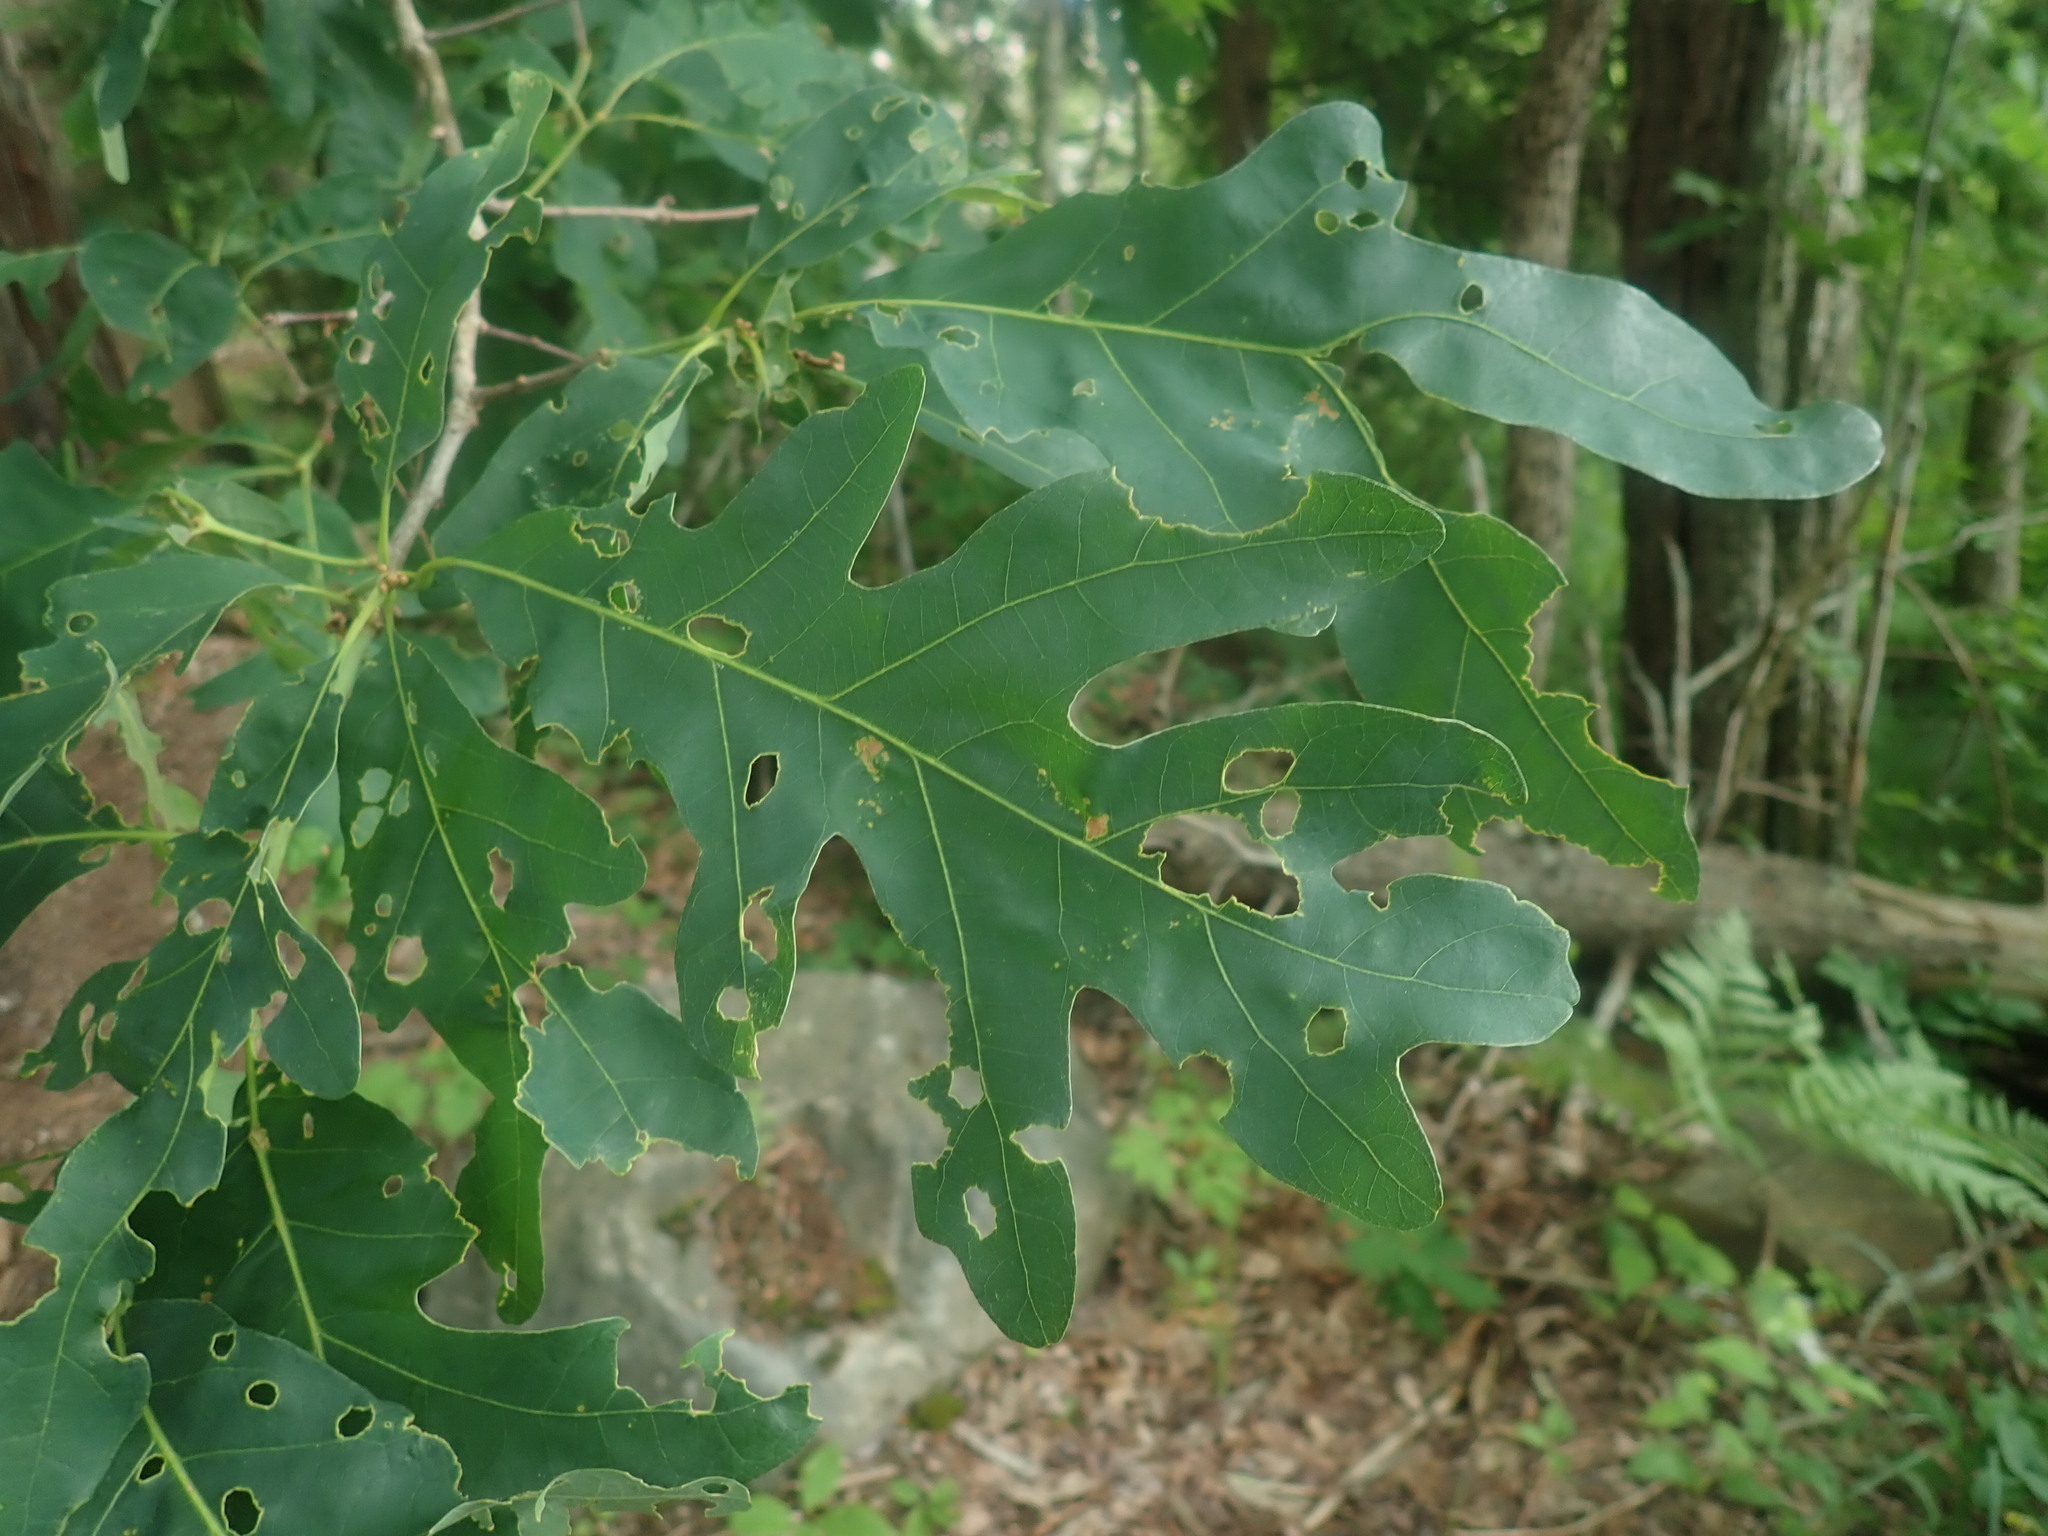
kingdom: Plantae
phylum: Tracheophyta
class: Magnoliopsida
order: Fagales
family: Fagaceae
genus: Quercus
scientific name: Quercus alba
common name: White oak
